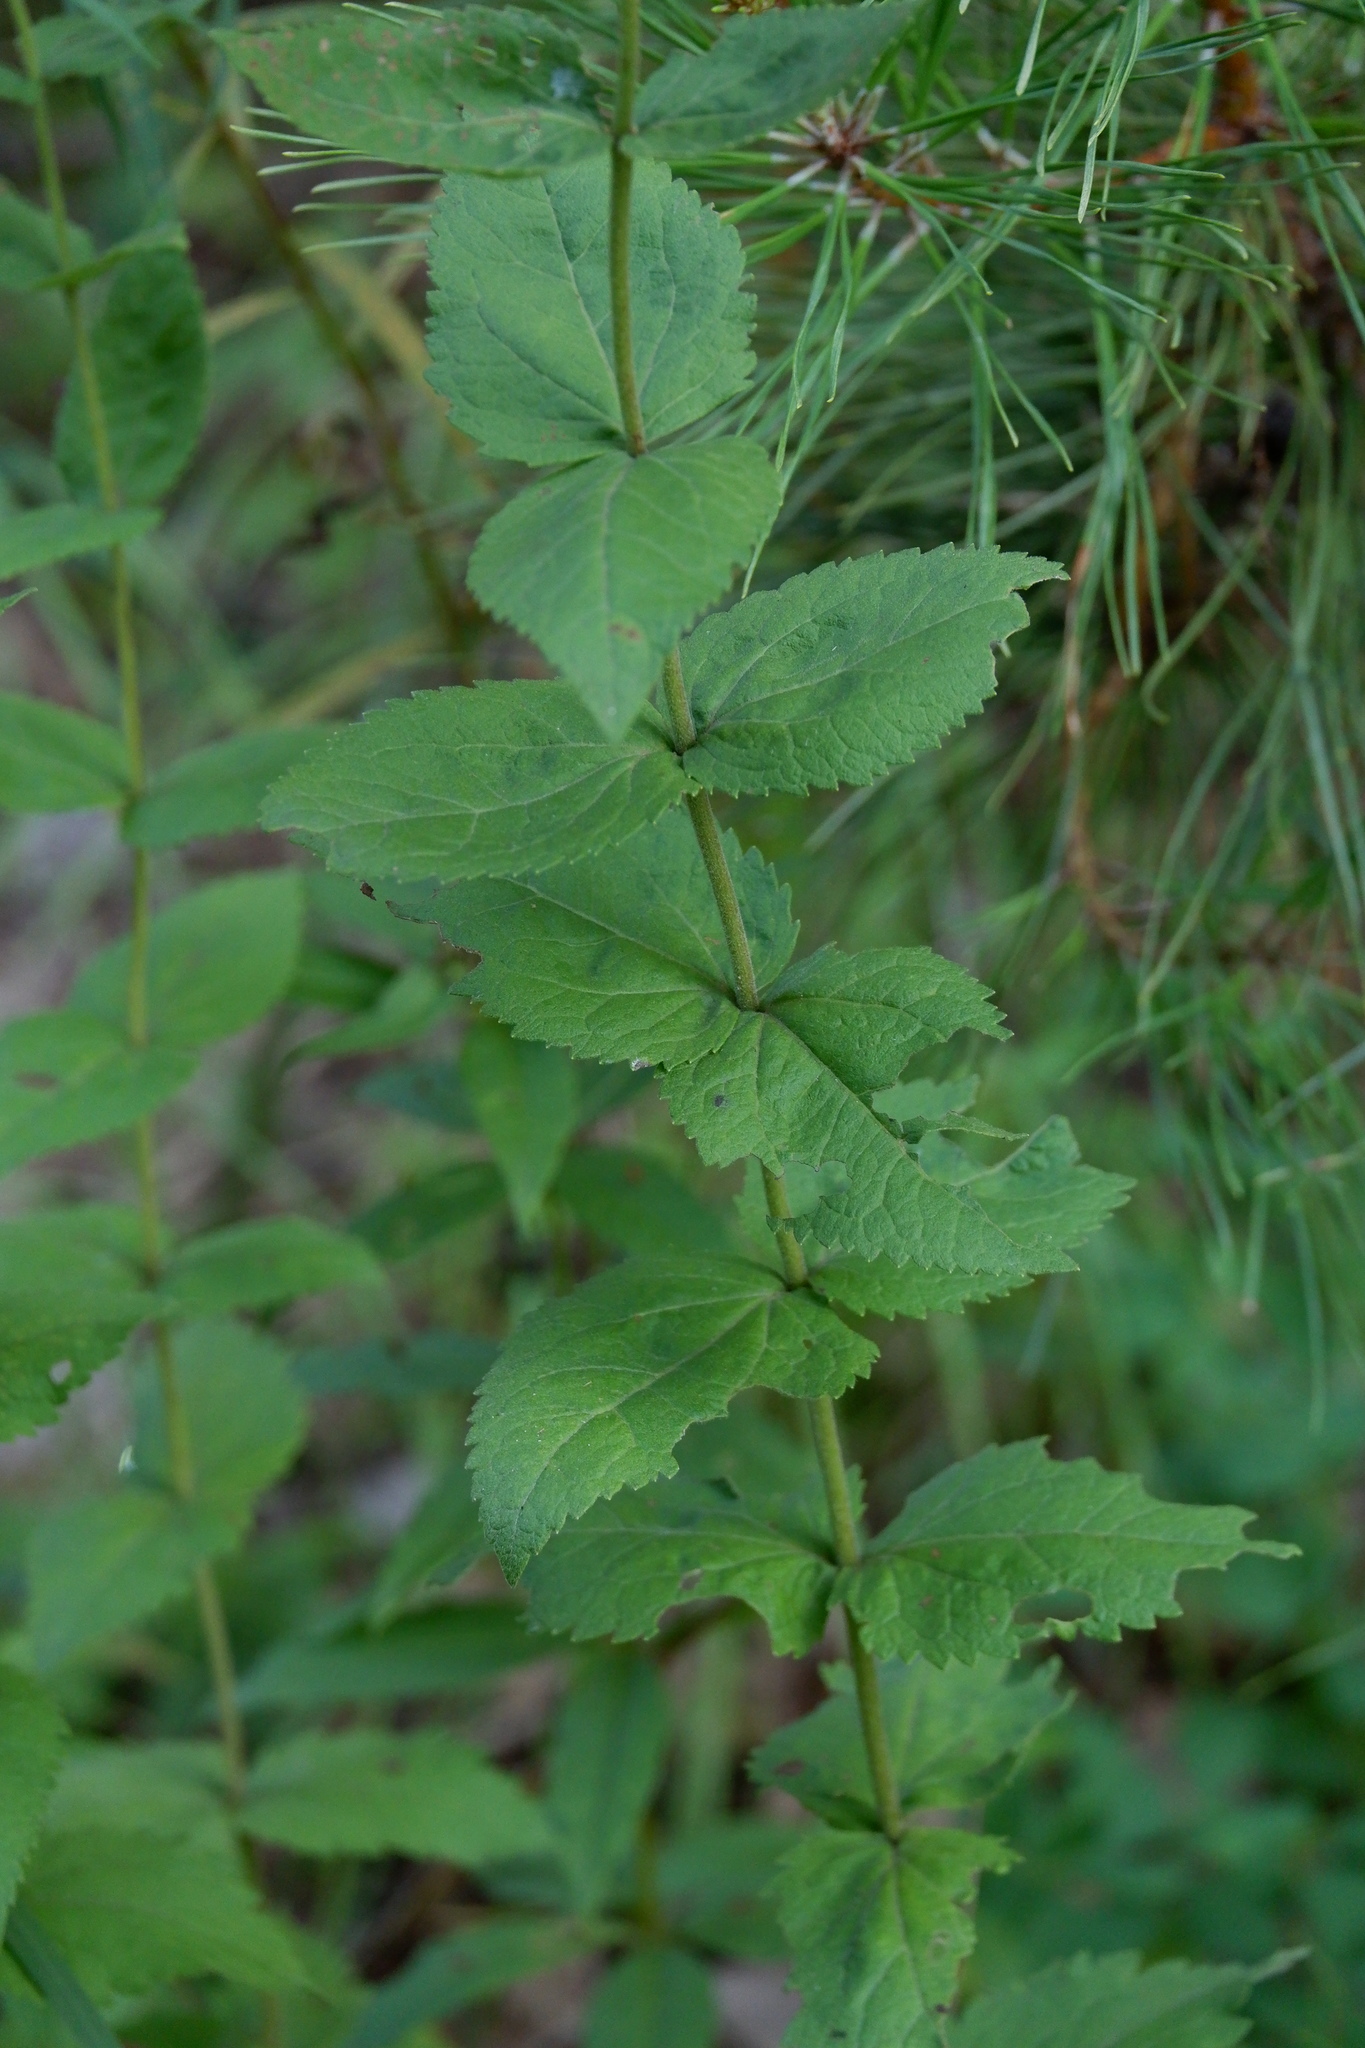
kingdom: Plantae
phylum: Tracheophyta
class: Magnoliopsida
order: Asterales
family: Asteraceae
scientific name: Asteraceae
